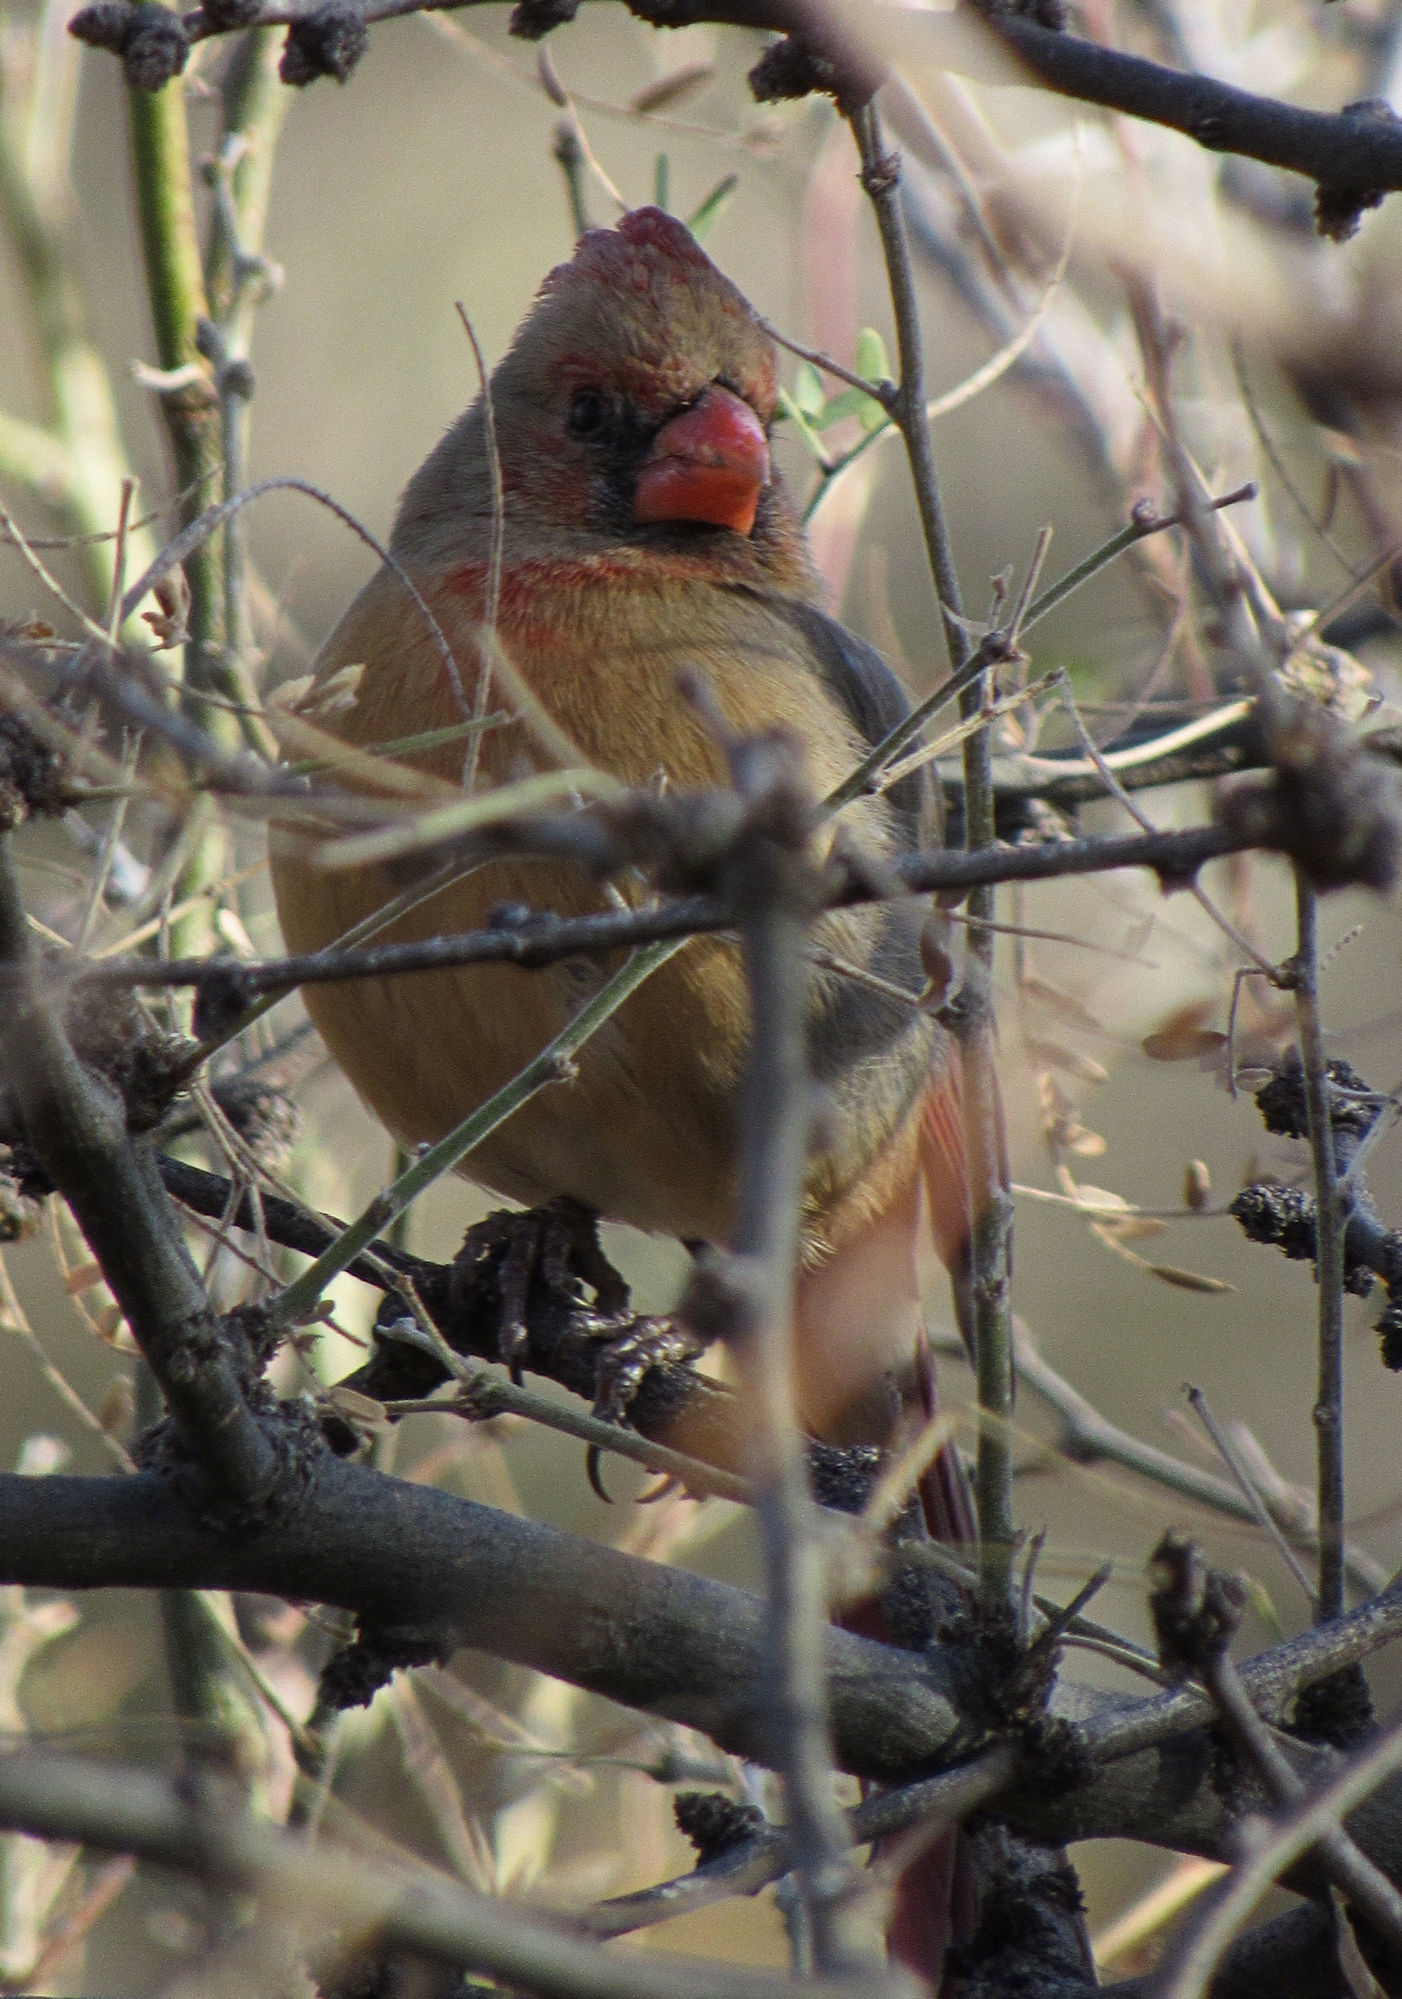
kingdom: Animalia
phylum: Chordata
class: Aves
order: Passeriformes
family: Cardinalidae
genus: Cardinalis
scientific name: Cardinalis cardinalis
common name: Northern cardinal
